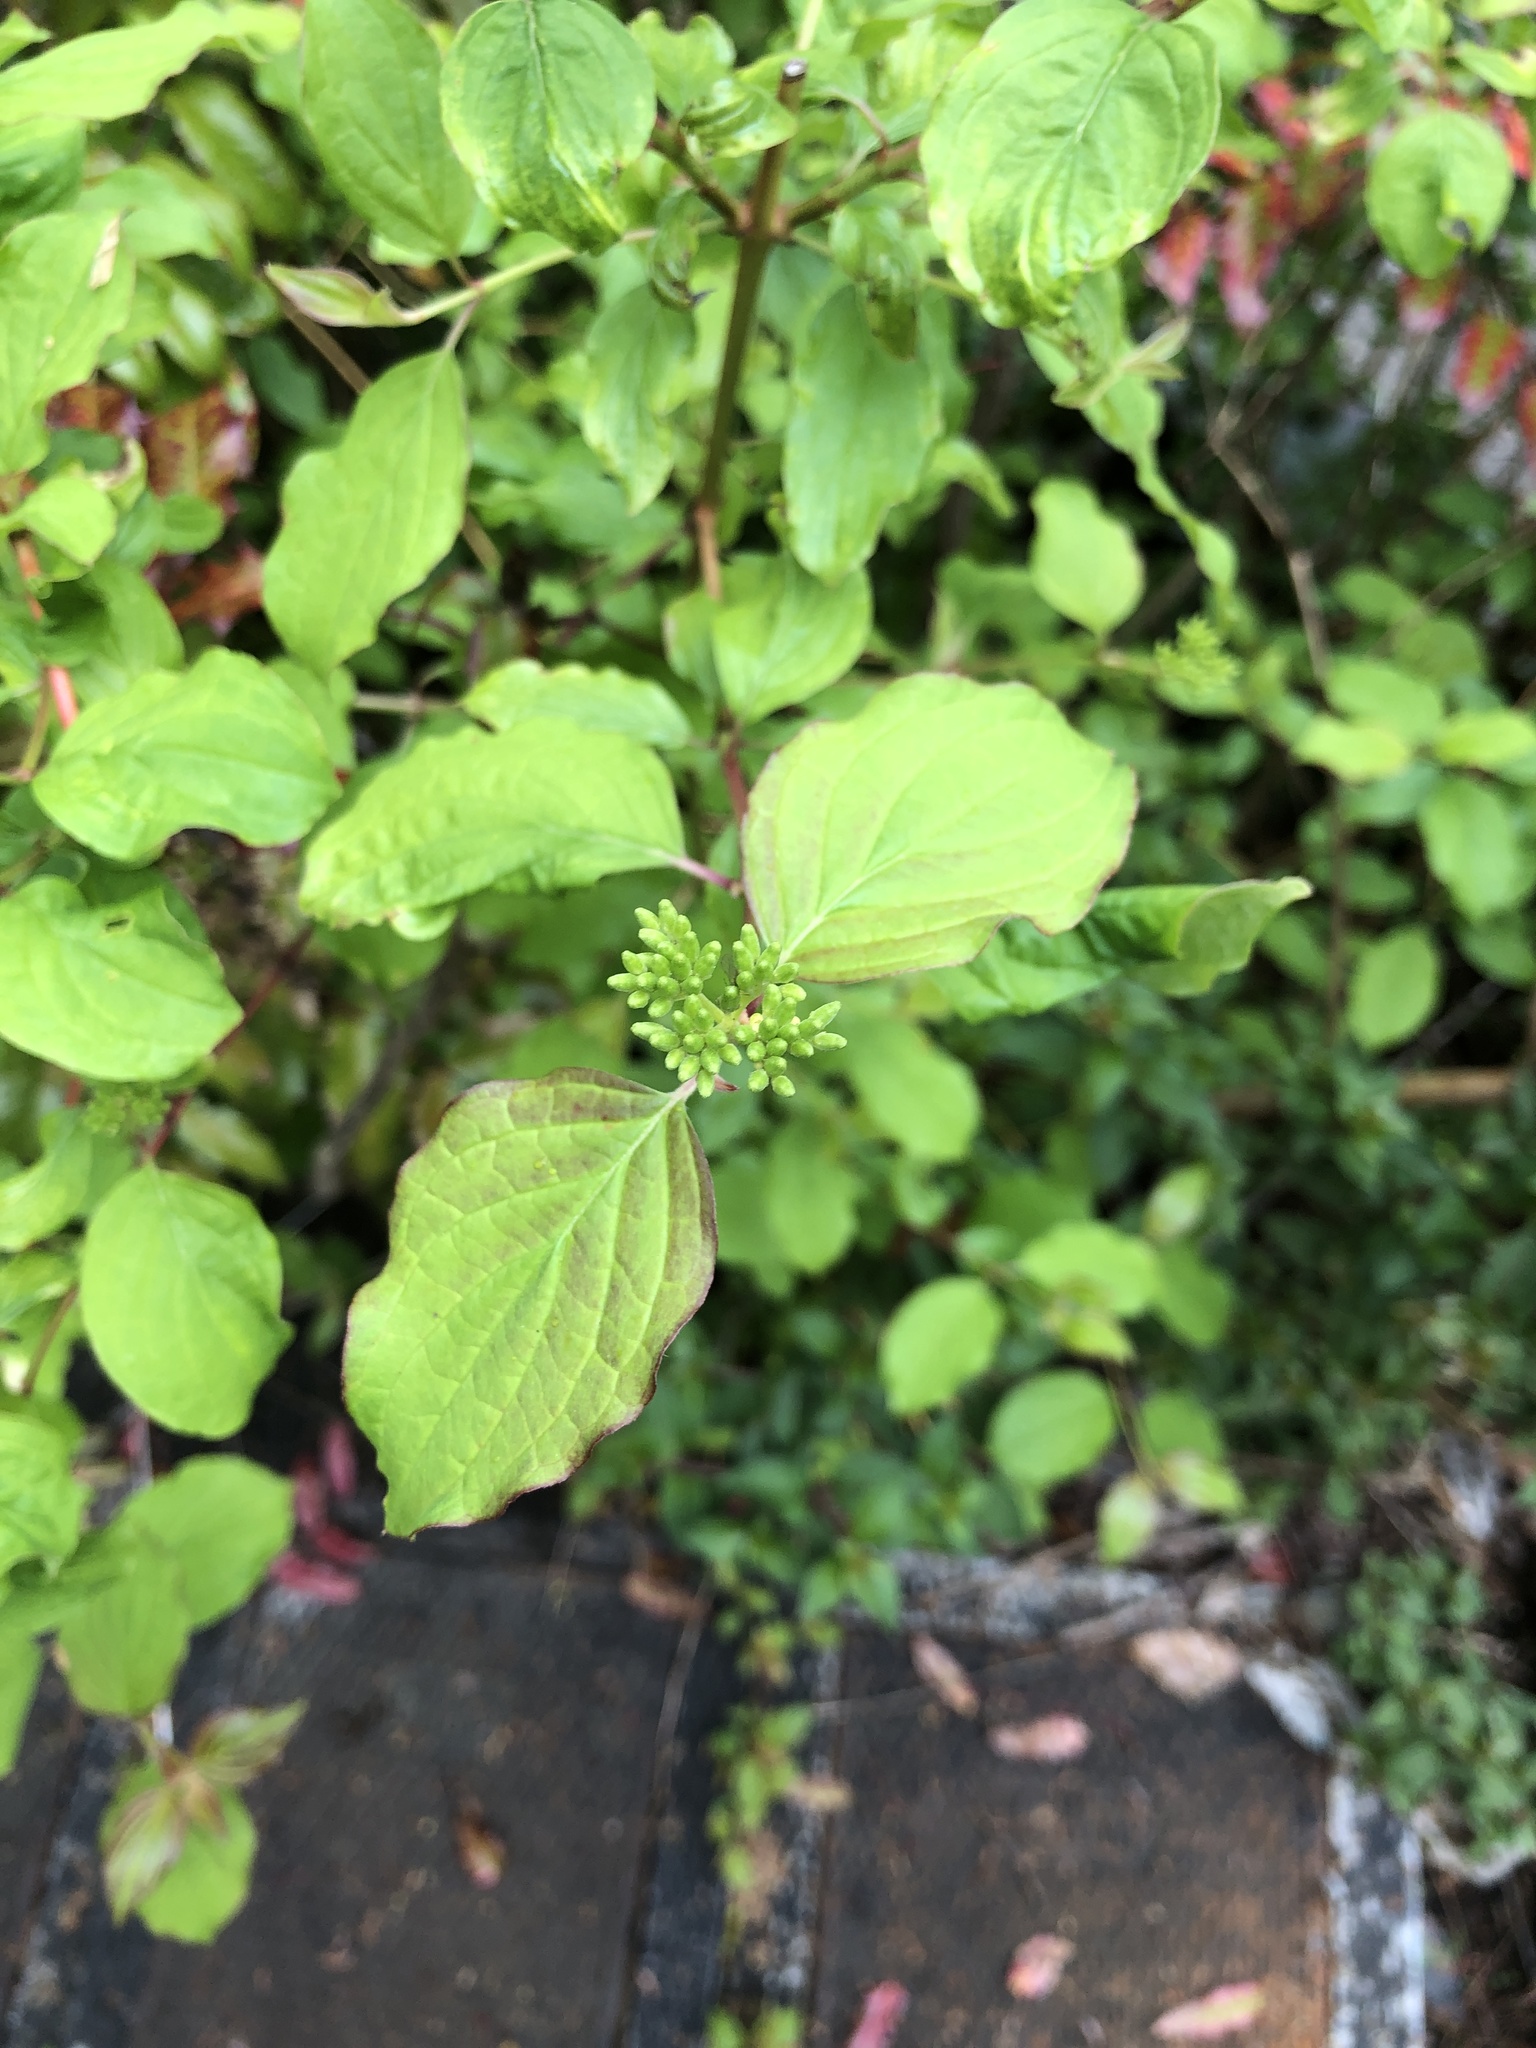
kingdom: Plantae
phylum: Tracheophyta
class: Magnoliopsida
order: Cornales
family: Cornaceae
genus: Cornus
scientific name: Cornus sericea
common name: Red-osier dogwood
